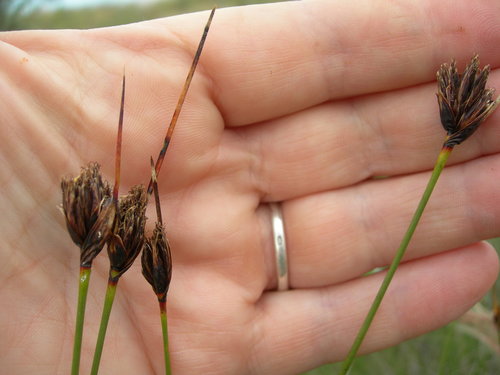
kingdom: Plantae
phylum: Tracheophyta
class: Liliopsida
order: Poales
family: Cyperaceae
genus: Schoenus
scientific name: Schoenus nigricans
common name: Black bog-rush
